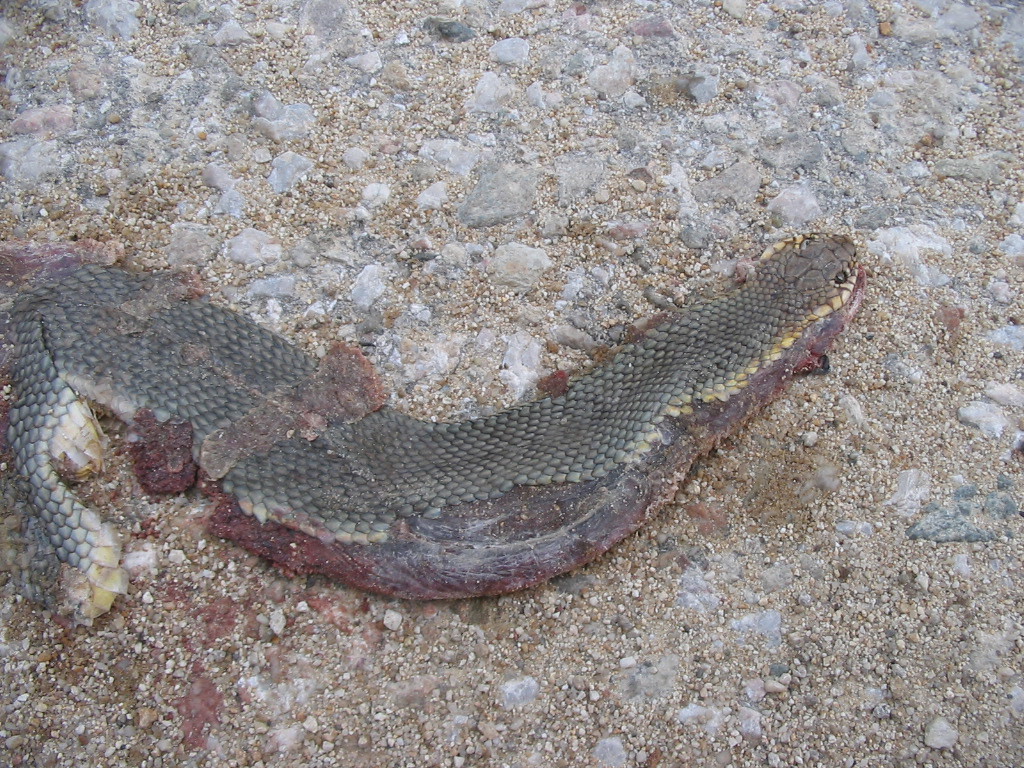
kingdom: Animalia
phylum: Chordata
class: Squamata
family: Colubridae
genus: Dolichophis
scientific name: Dolichophis caspius
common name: Large whip snake
